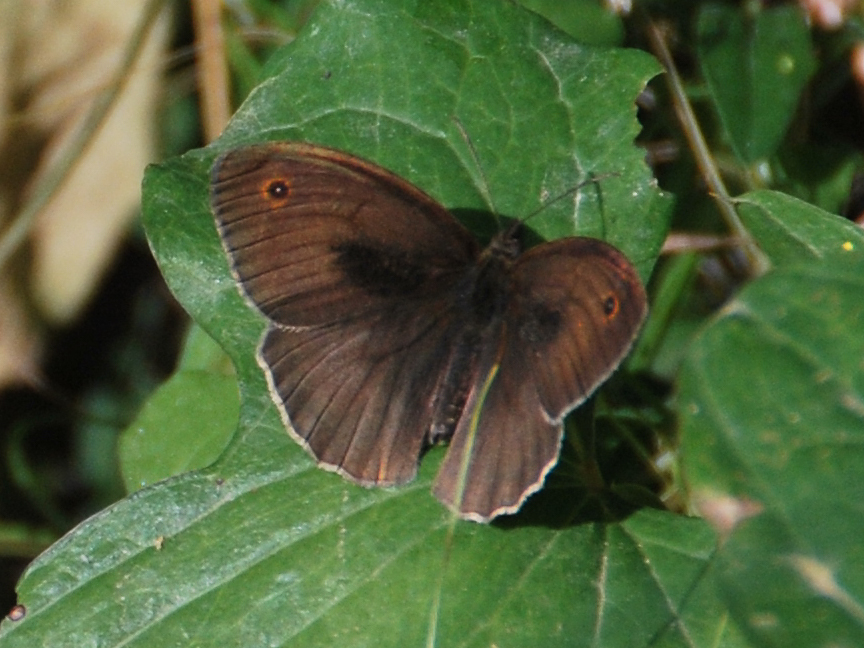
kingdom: Animalia
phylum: Arthropoda
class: Insecta
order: Lepidoptera
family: Nymphalidae
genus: Maniola
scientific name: Maniola jurtina
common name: Meadow brown
